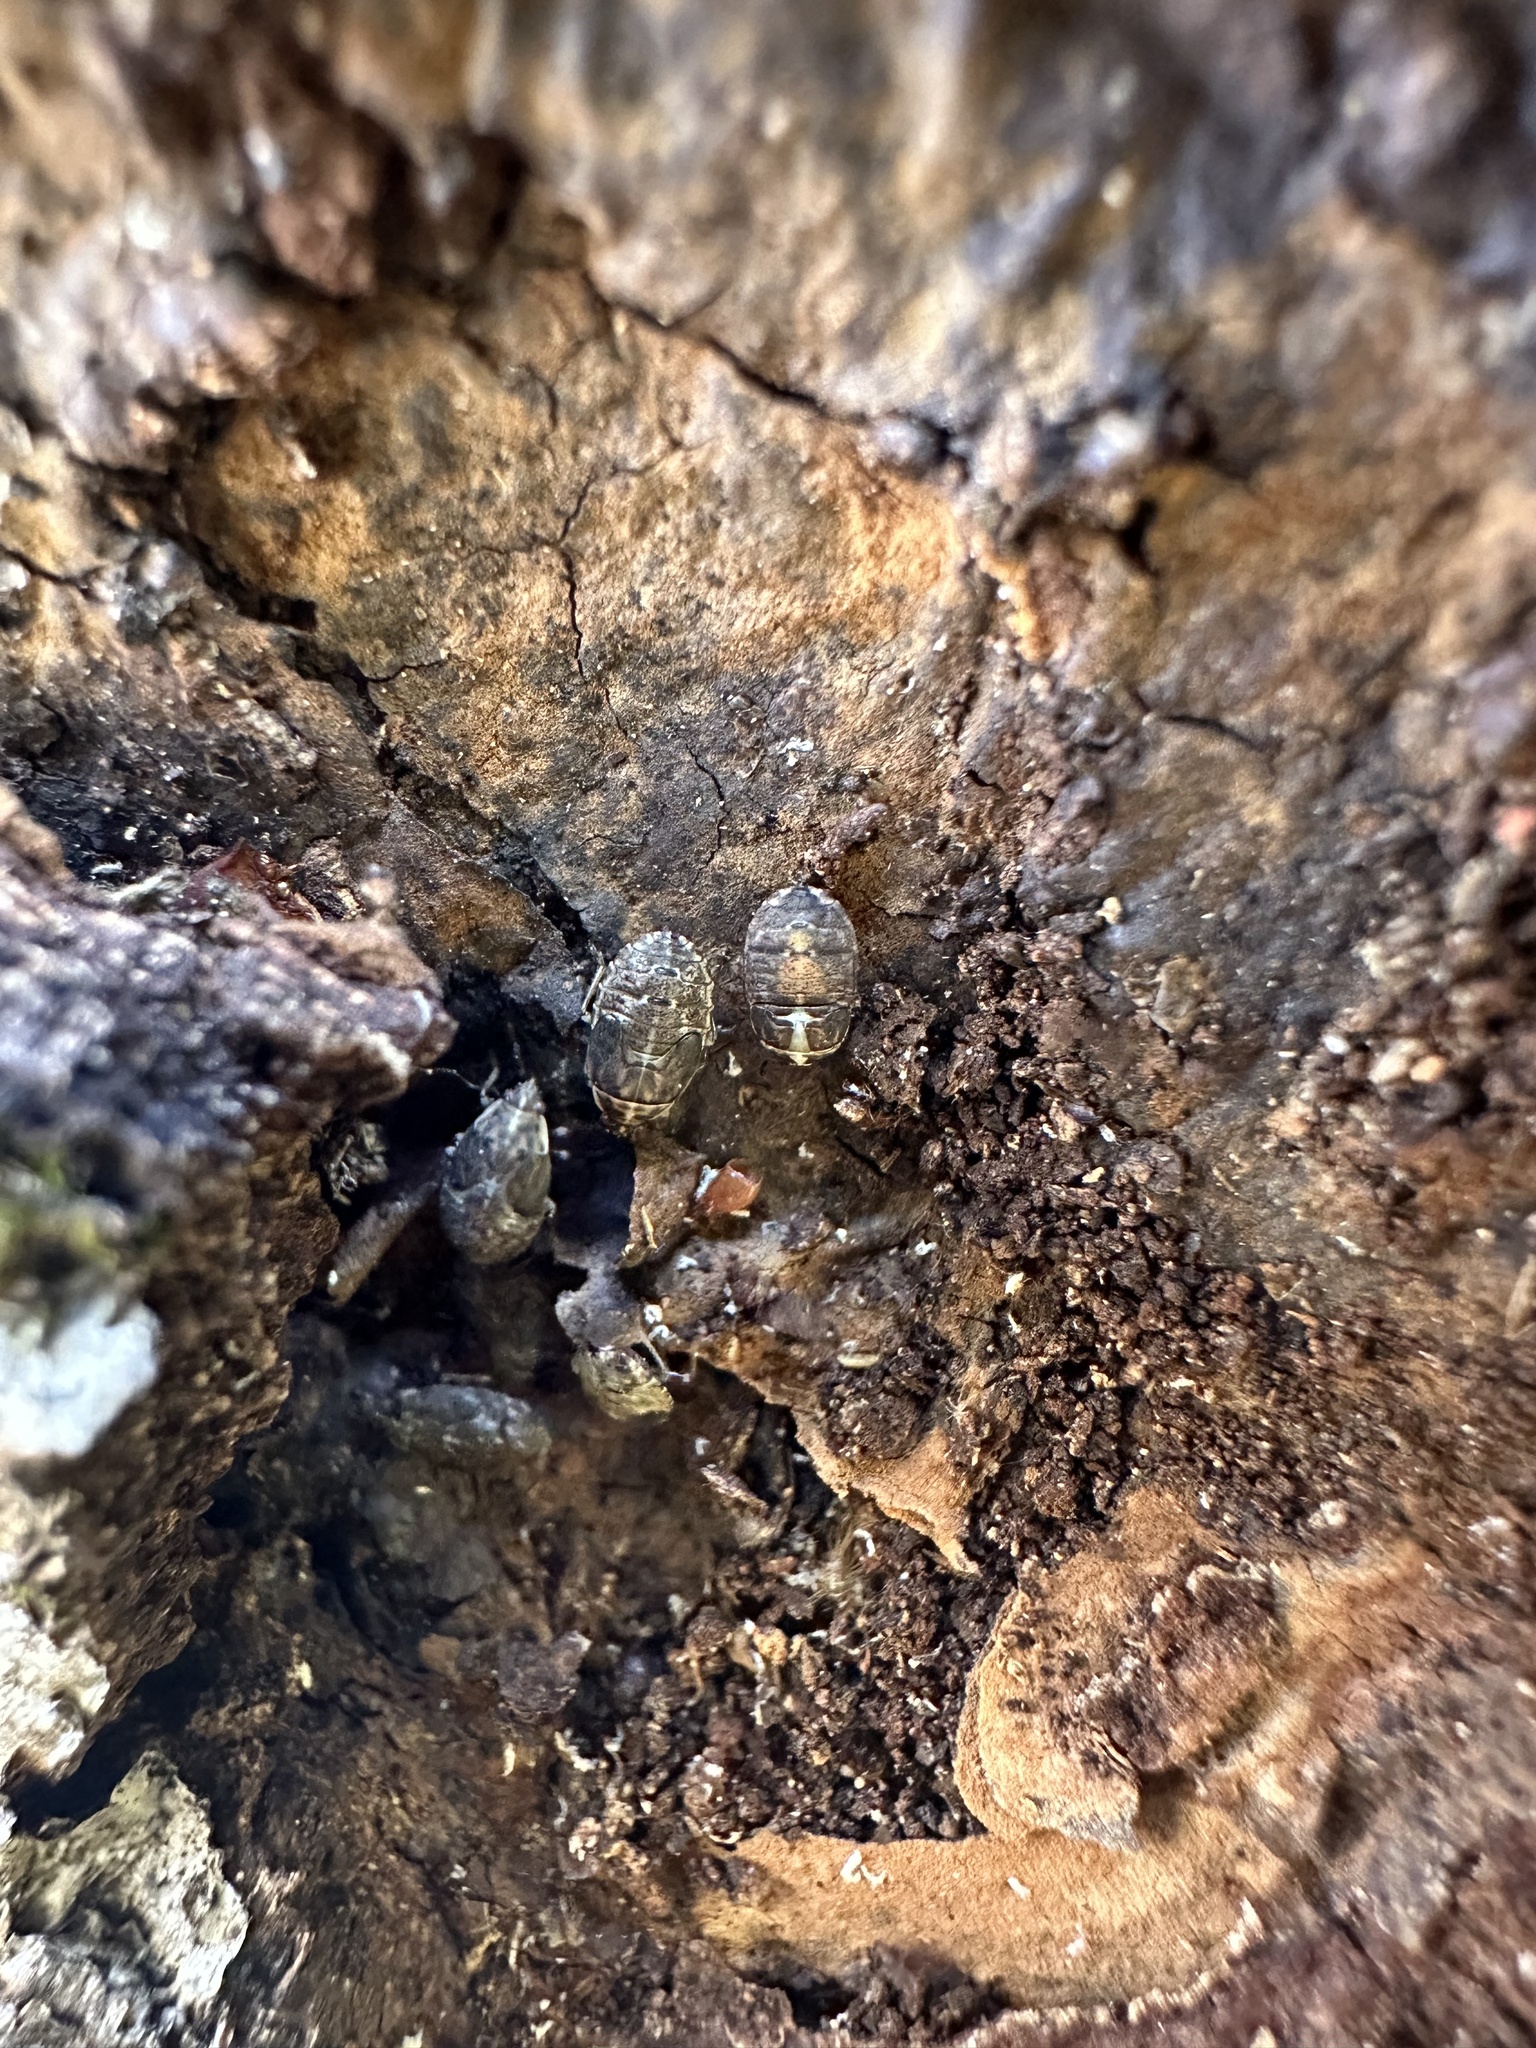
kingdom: Animalia
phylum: Arthropoda
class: Insecta
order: Hemiptera
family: Lygaeidae
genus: Syzygitis
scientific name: Syzygitis poecilus
